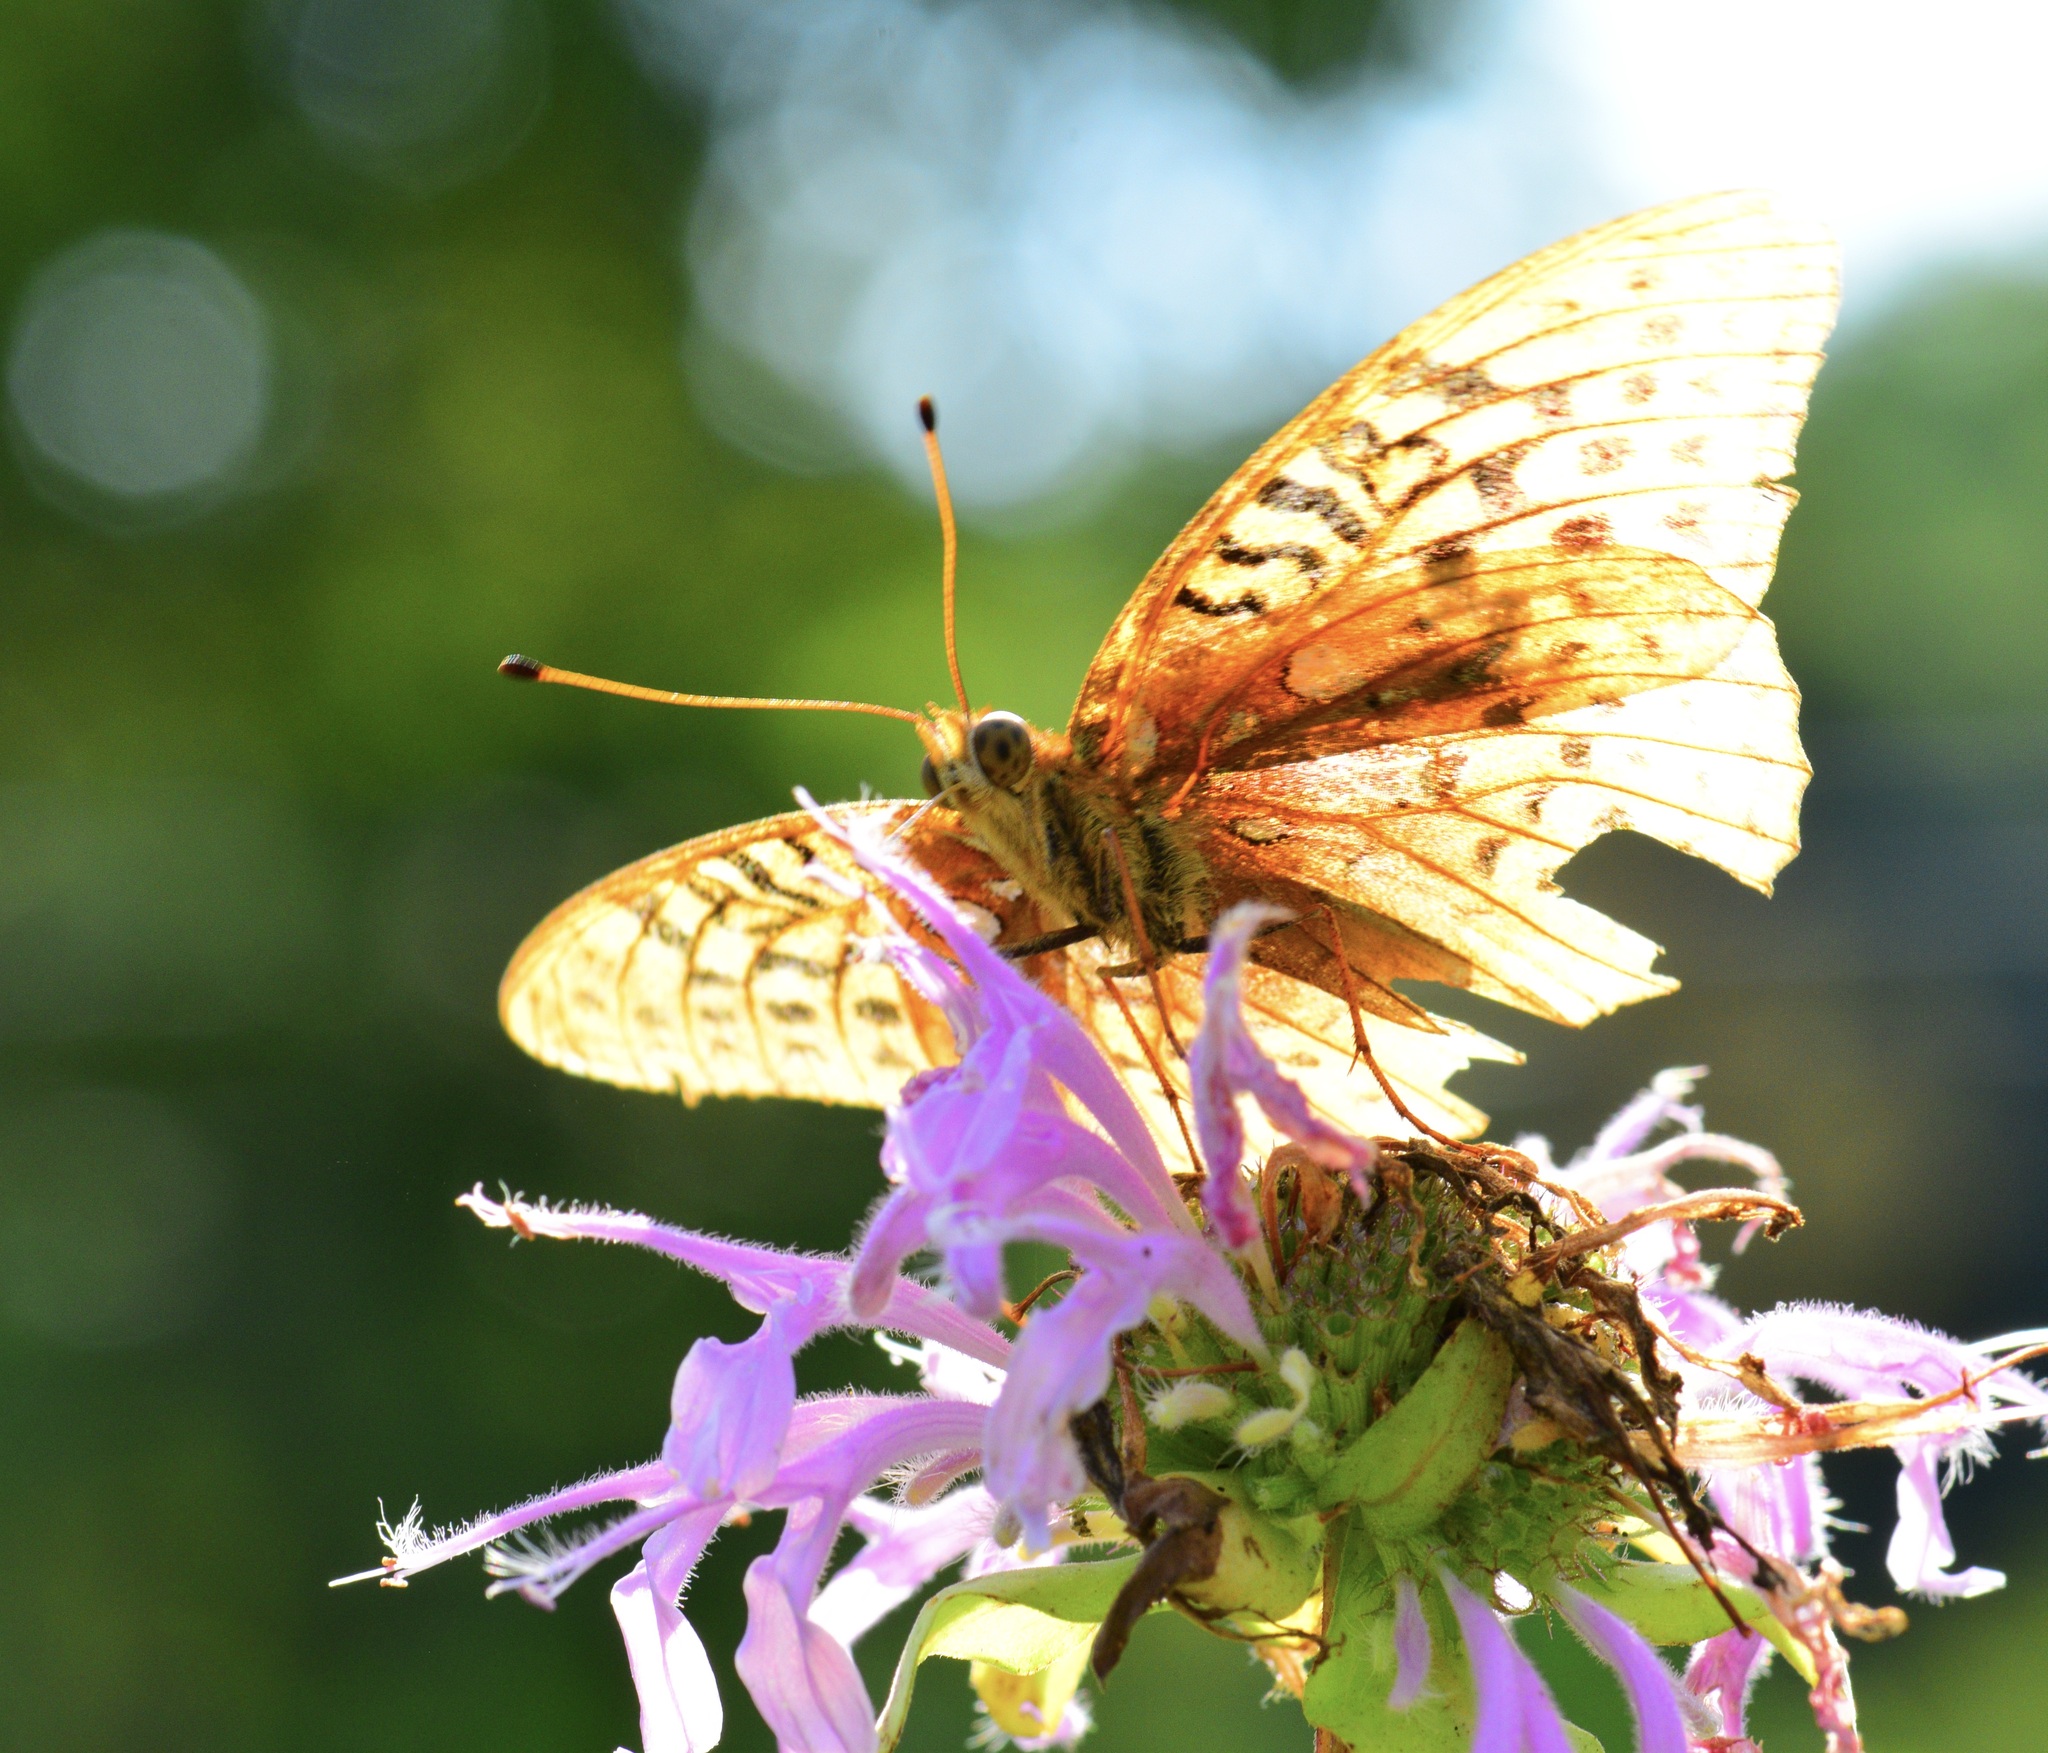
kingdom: Animalia
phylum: Arthropoda
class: Insecta
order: Lepidoptera
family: Nymphalidae
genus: Speyeria
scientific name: Speyeria cybele
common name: Great spangled fritillary
